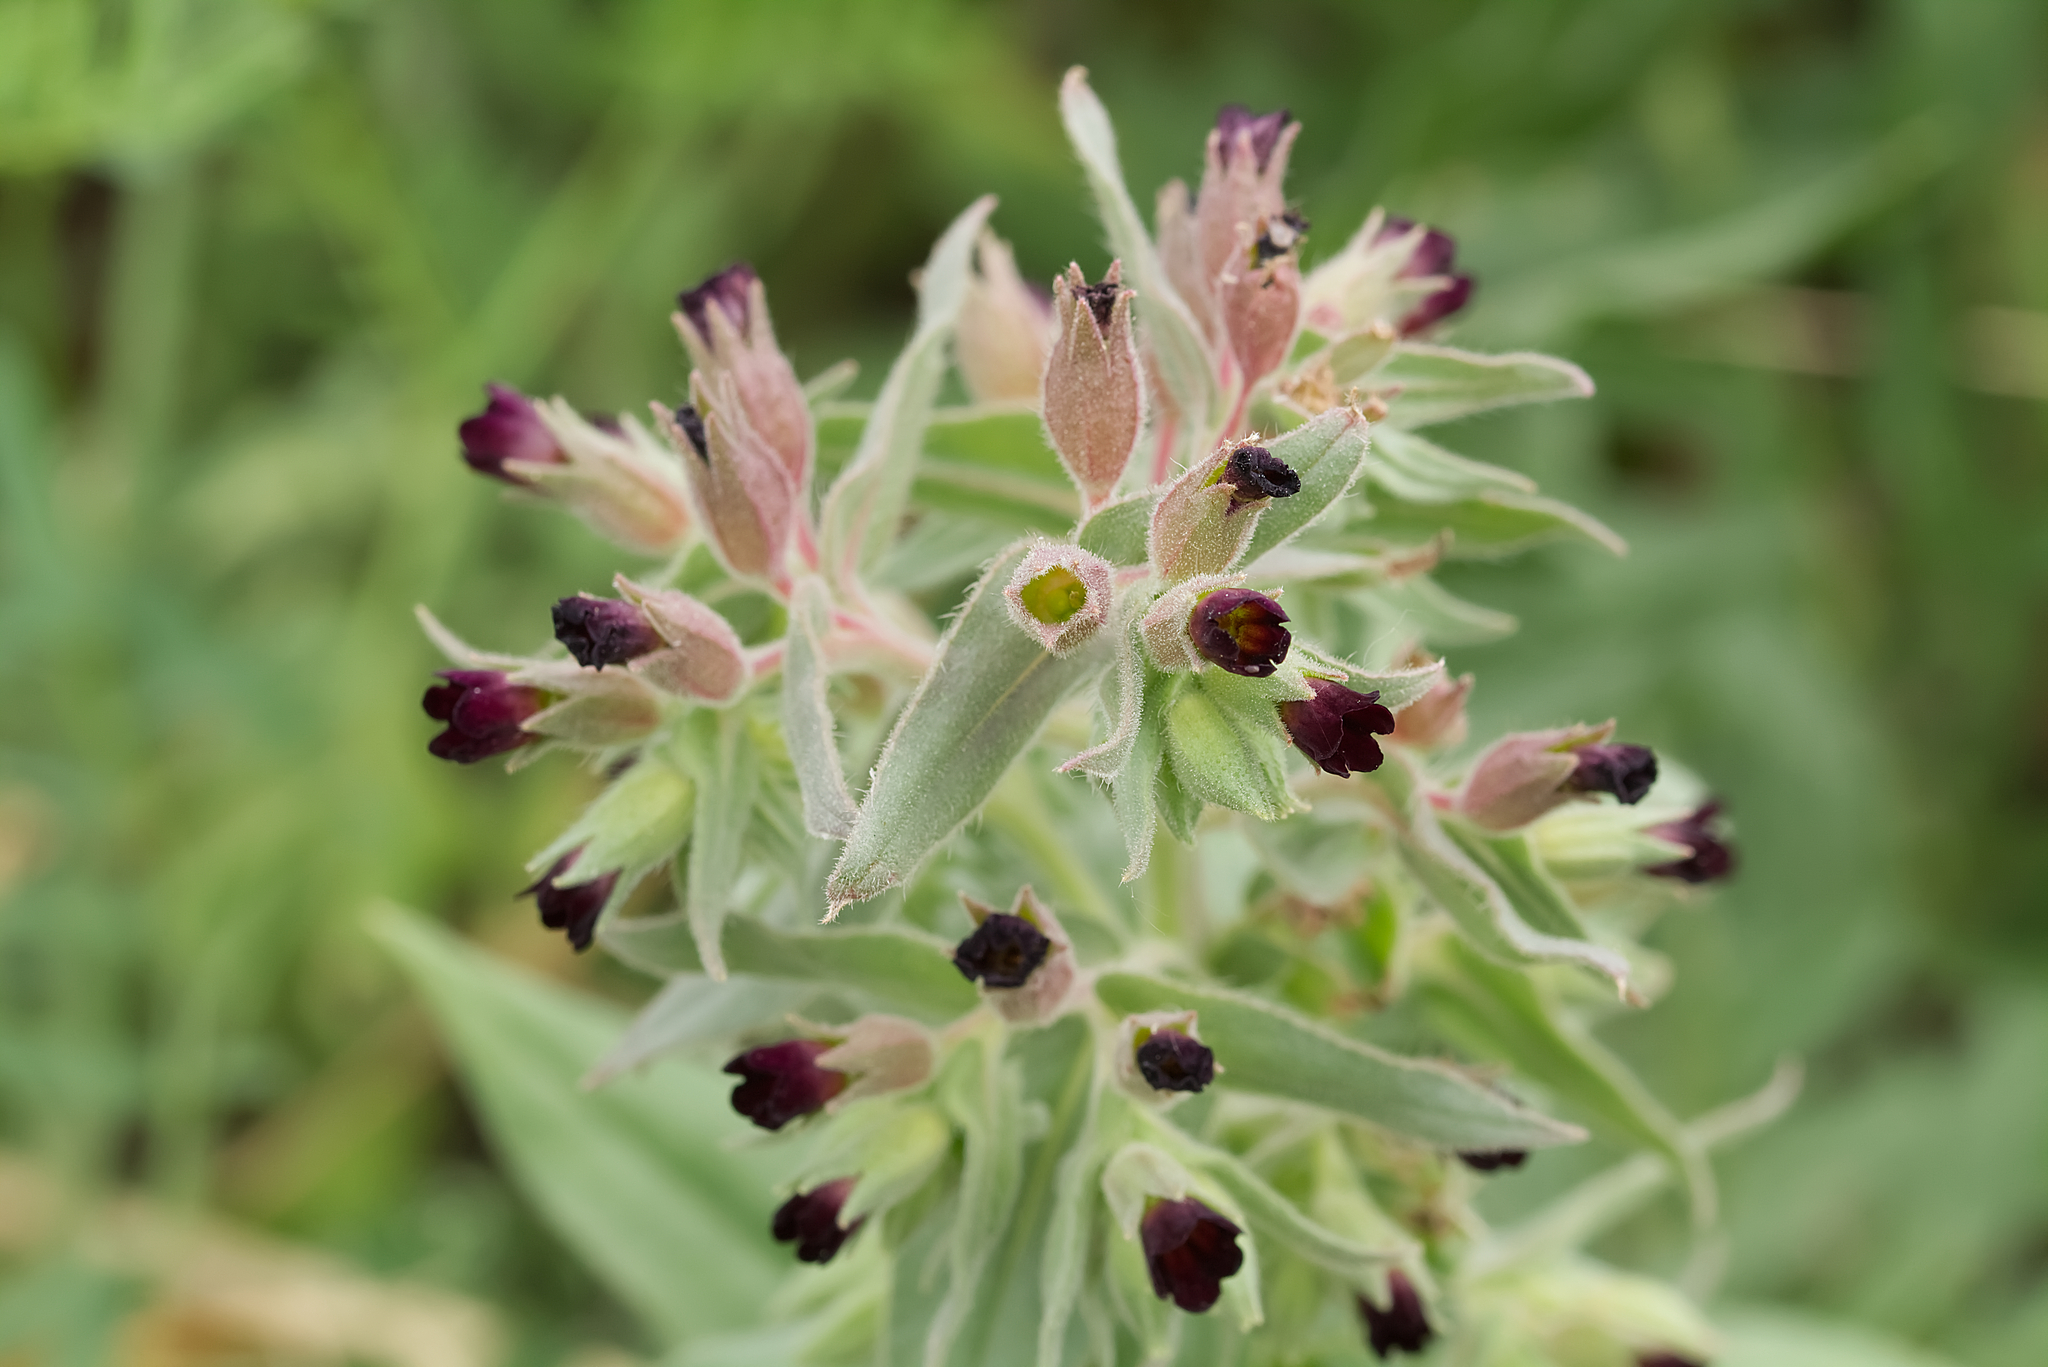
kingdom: Plantae
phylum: Tracheophyta
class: Magnoliopsida
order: Boraginales
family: Boraginaceae
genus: Nonea
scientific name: Nonea pulla
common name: Brown nonea
